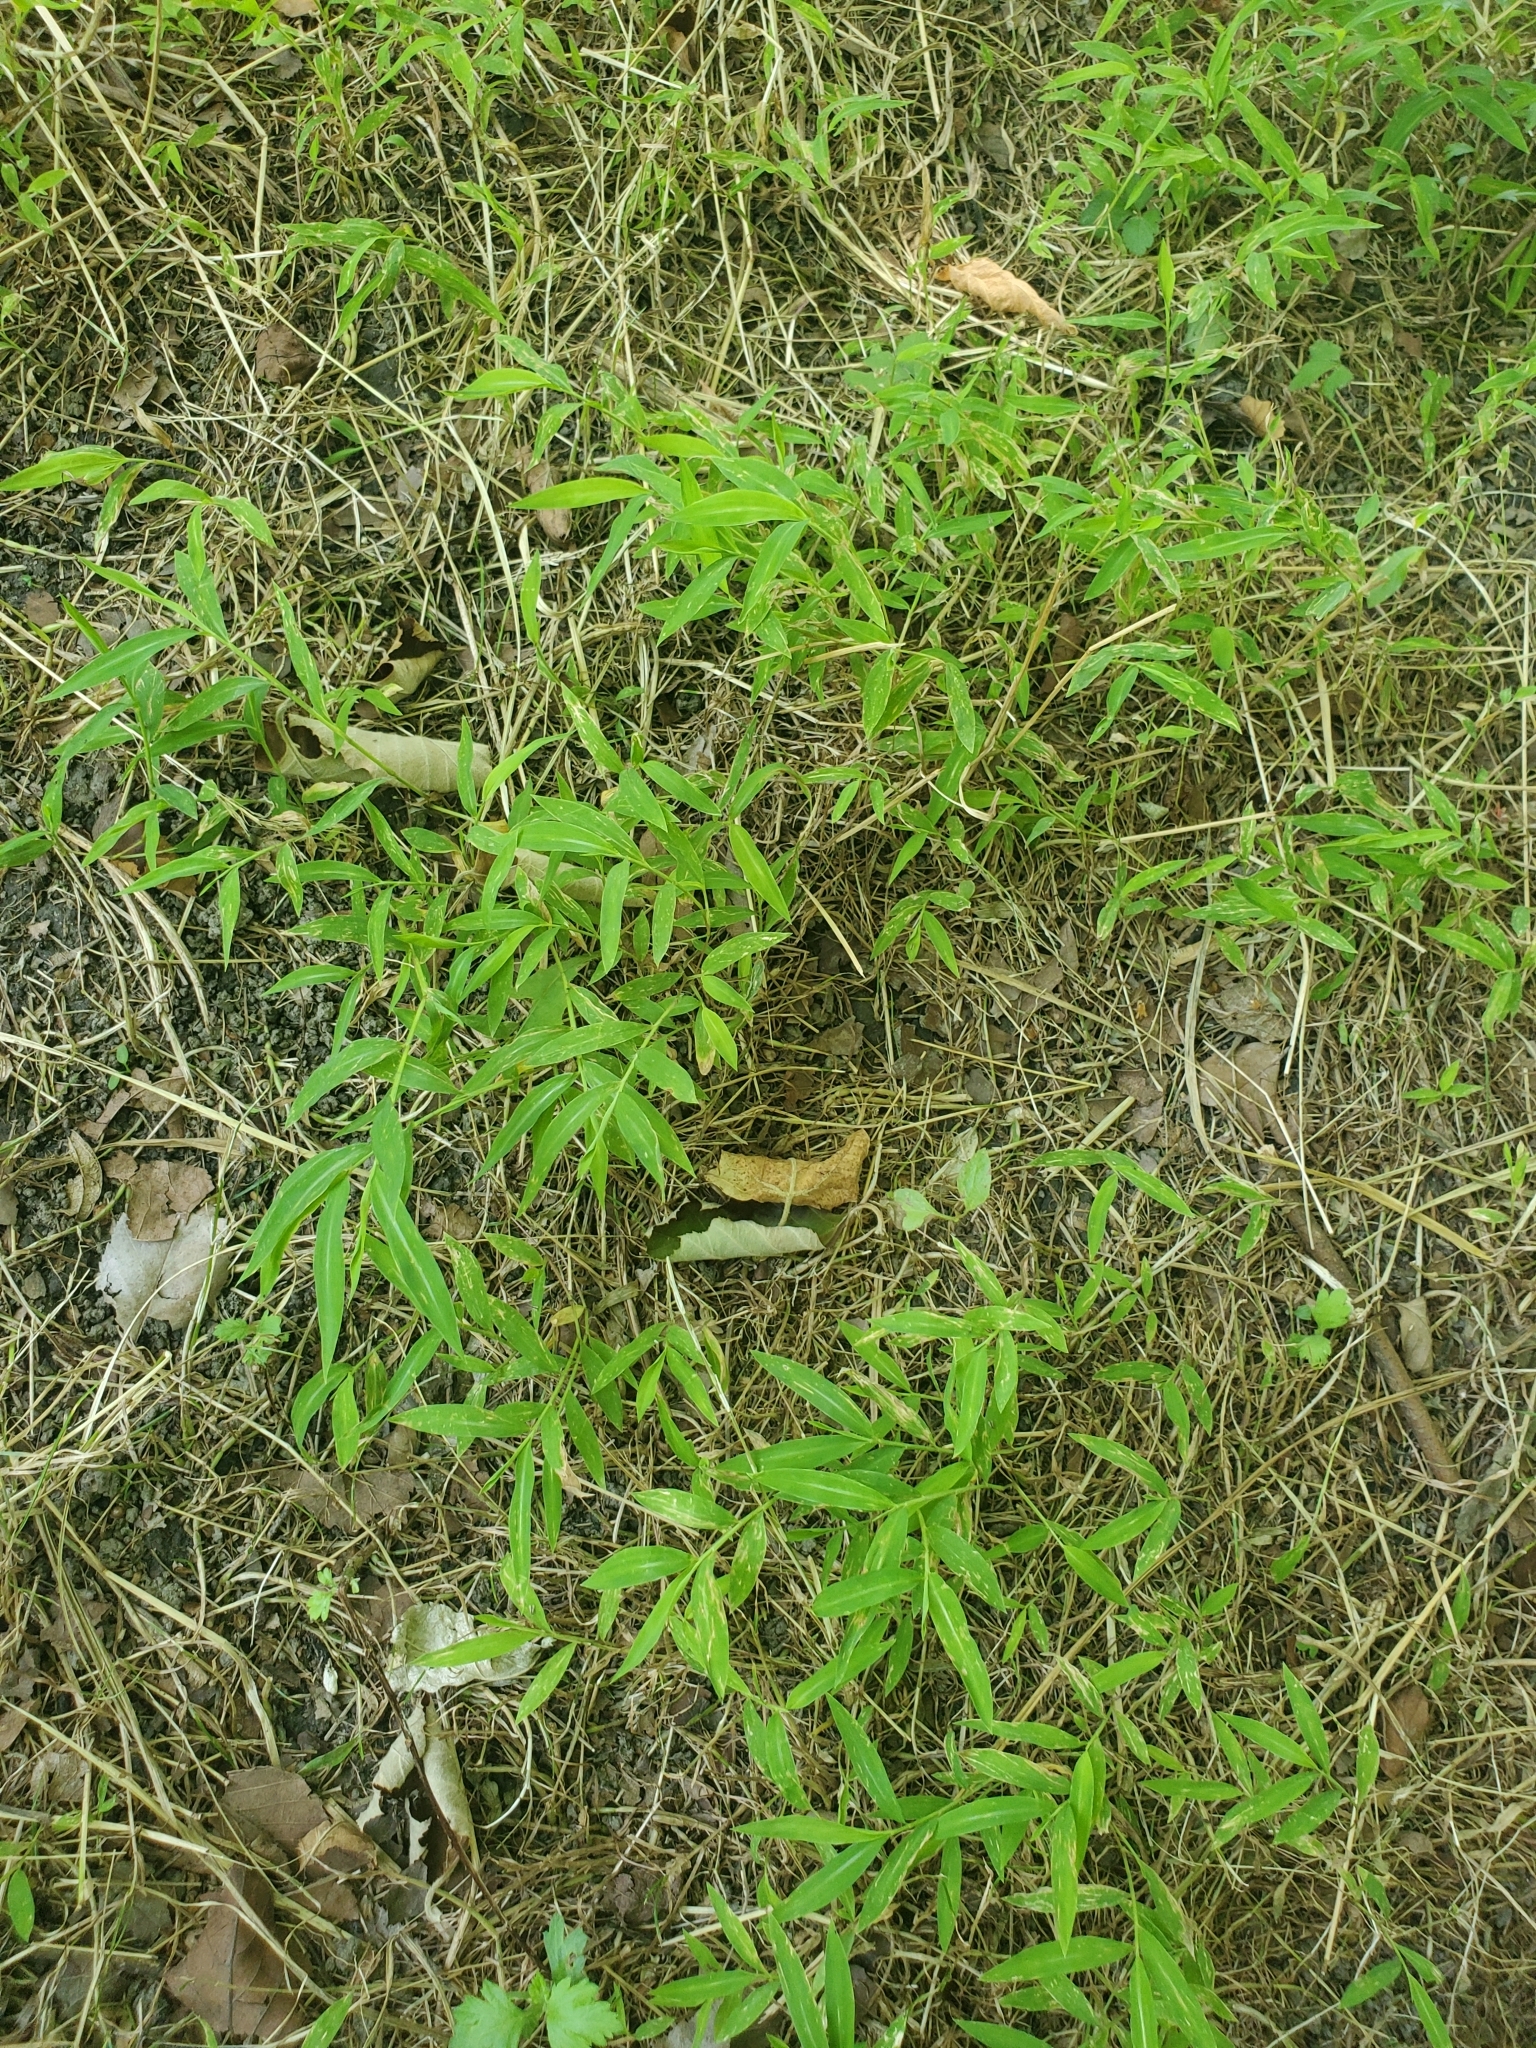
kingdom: Plantae
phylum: Tracheophyta
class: Liliopsida
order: Poales
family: Poaceae
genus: Microstegium
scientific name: Microstegium vimineum
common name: Japanese stiltgrass
